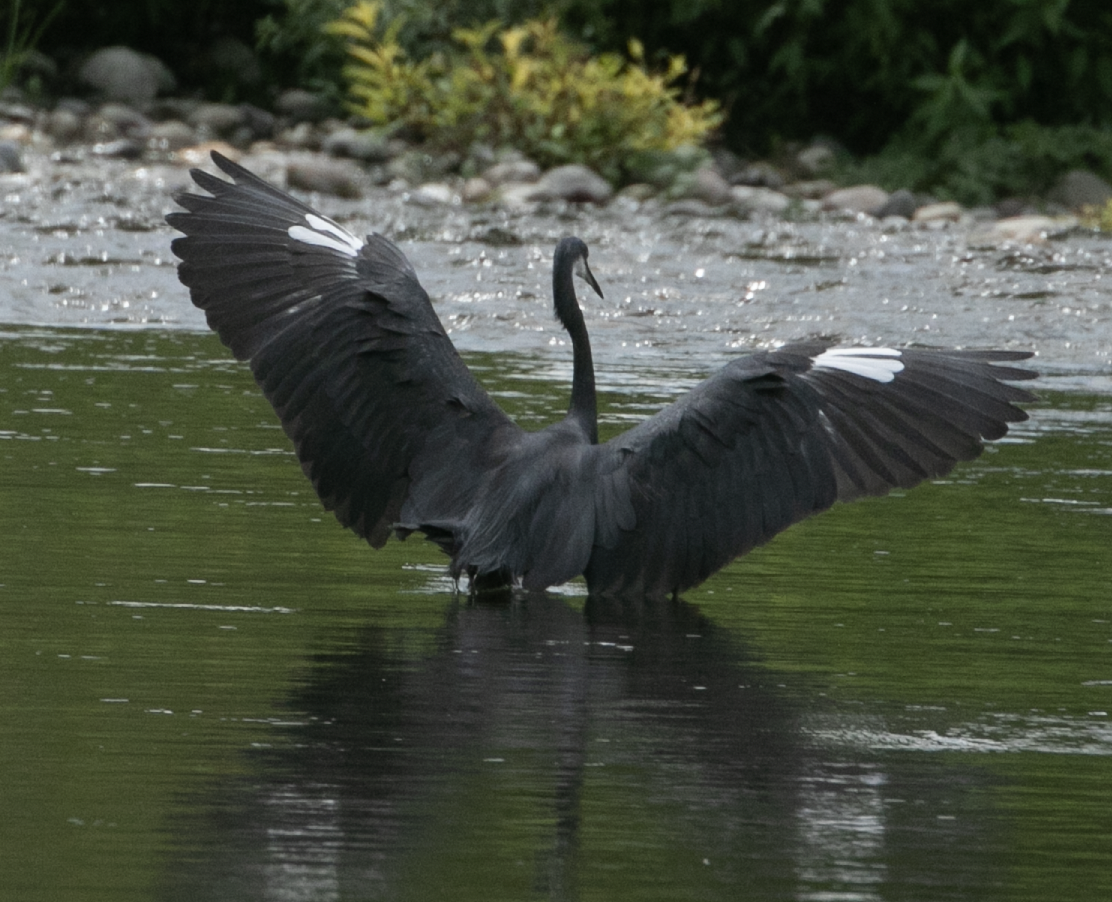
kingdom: Animalia
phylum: Chordata
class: Aves
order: Pelecaniformes
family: Ardeidae
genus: Egretta
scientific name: Egretta gularis
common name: Western reef-heron
